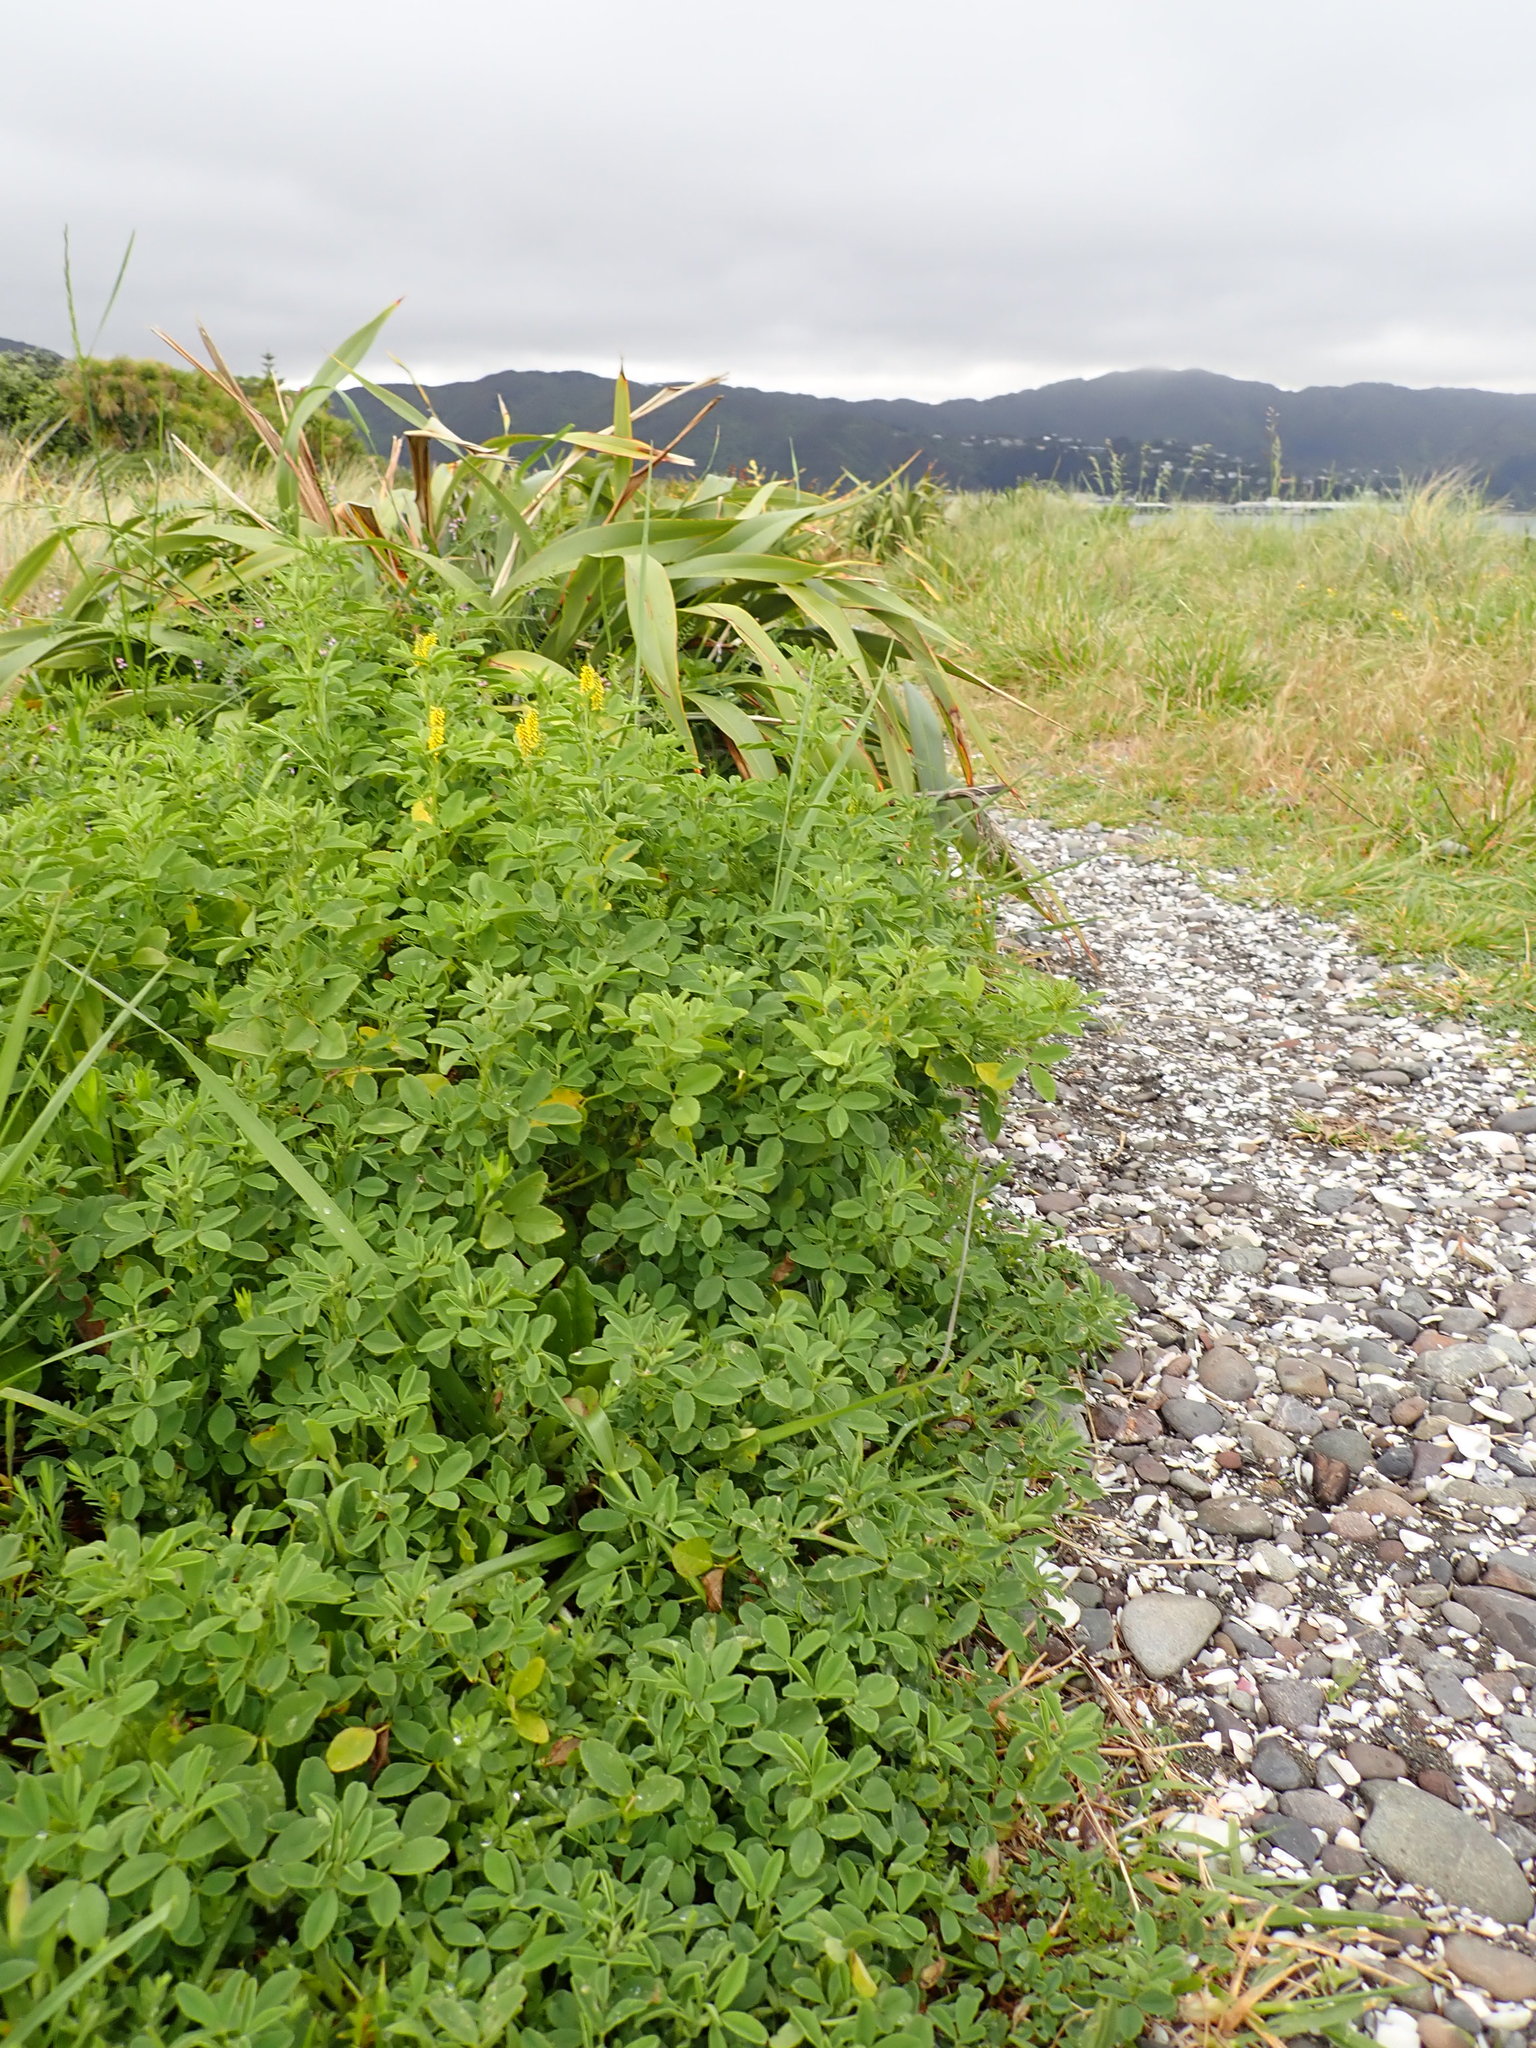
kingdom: Plantae
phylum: Tracheophyta
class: Magnoliopsida
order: Fabales
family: Fabaceae
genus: Melilotus
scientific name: Melilotus indicus
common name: Small melilot
